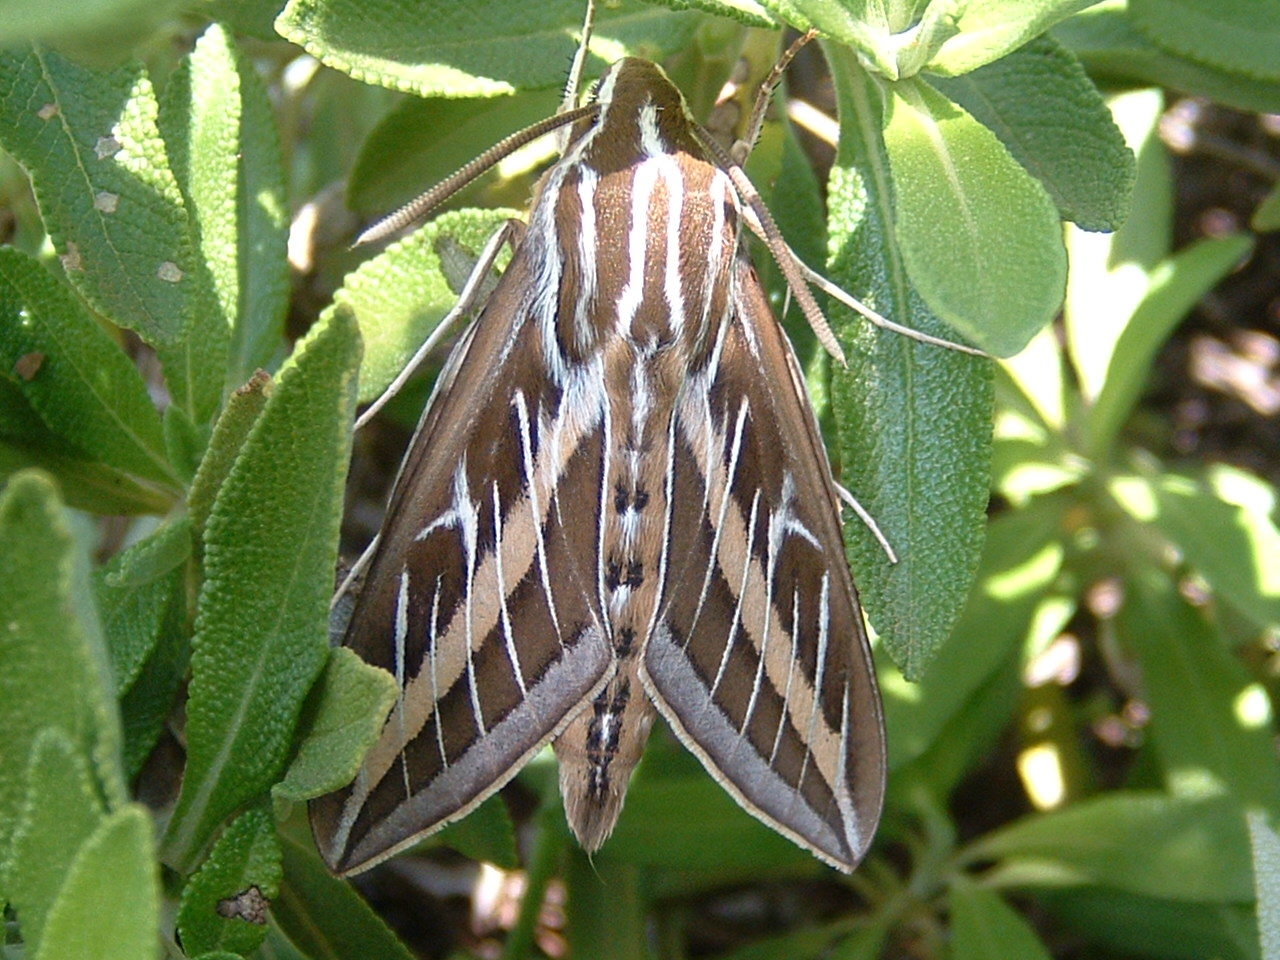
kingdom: Animalia
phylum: Arthropoda
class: Insecta
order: Lepidoptera
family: Sphingidae
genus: Hyles
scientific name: Hyles lineata
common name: White-lined sphinx
